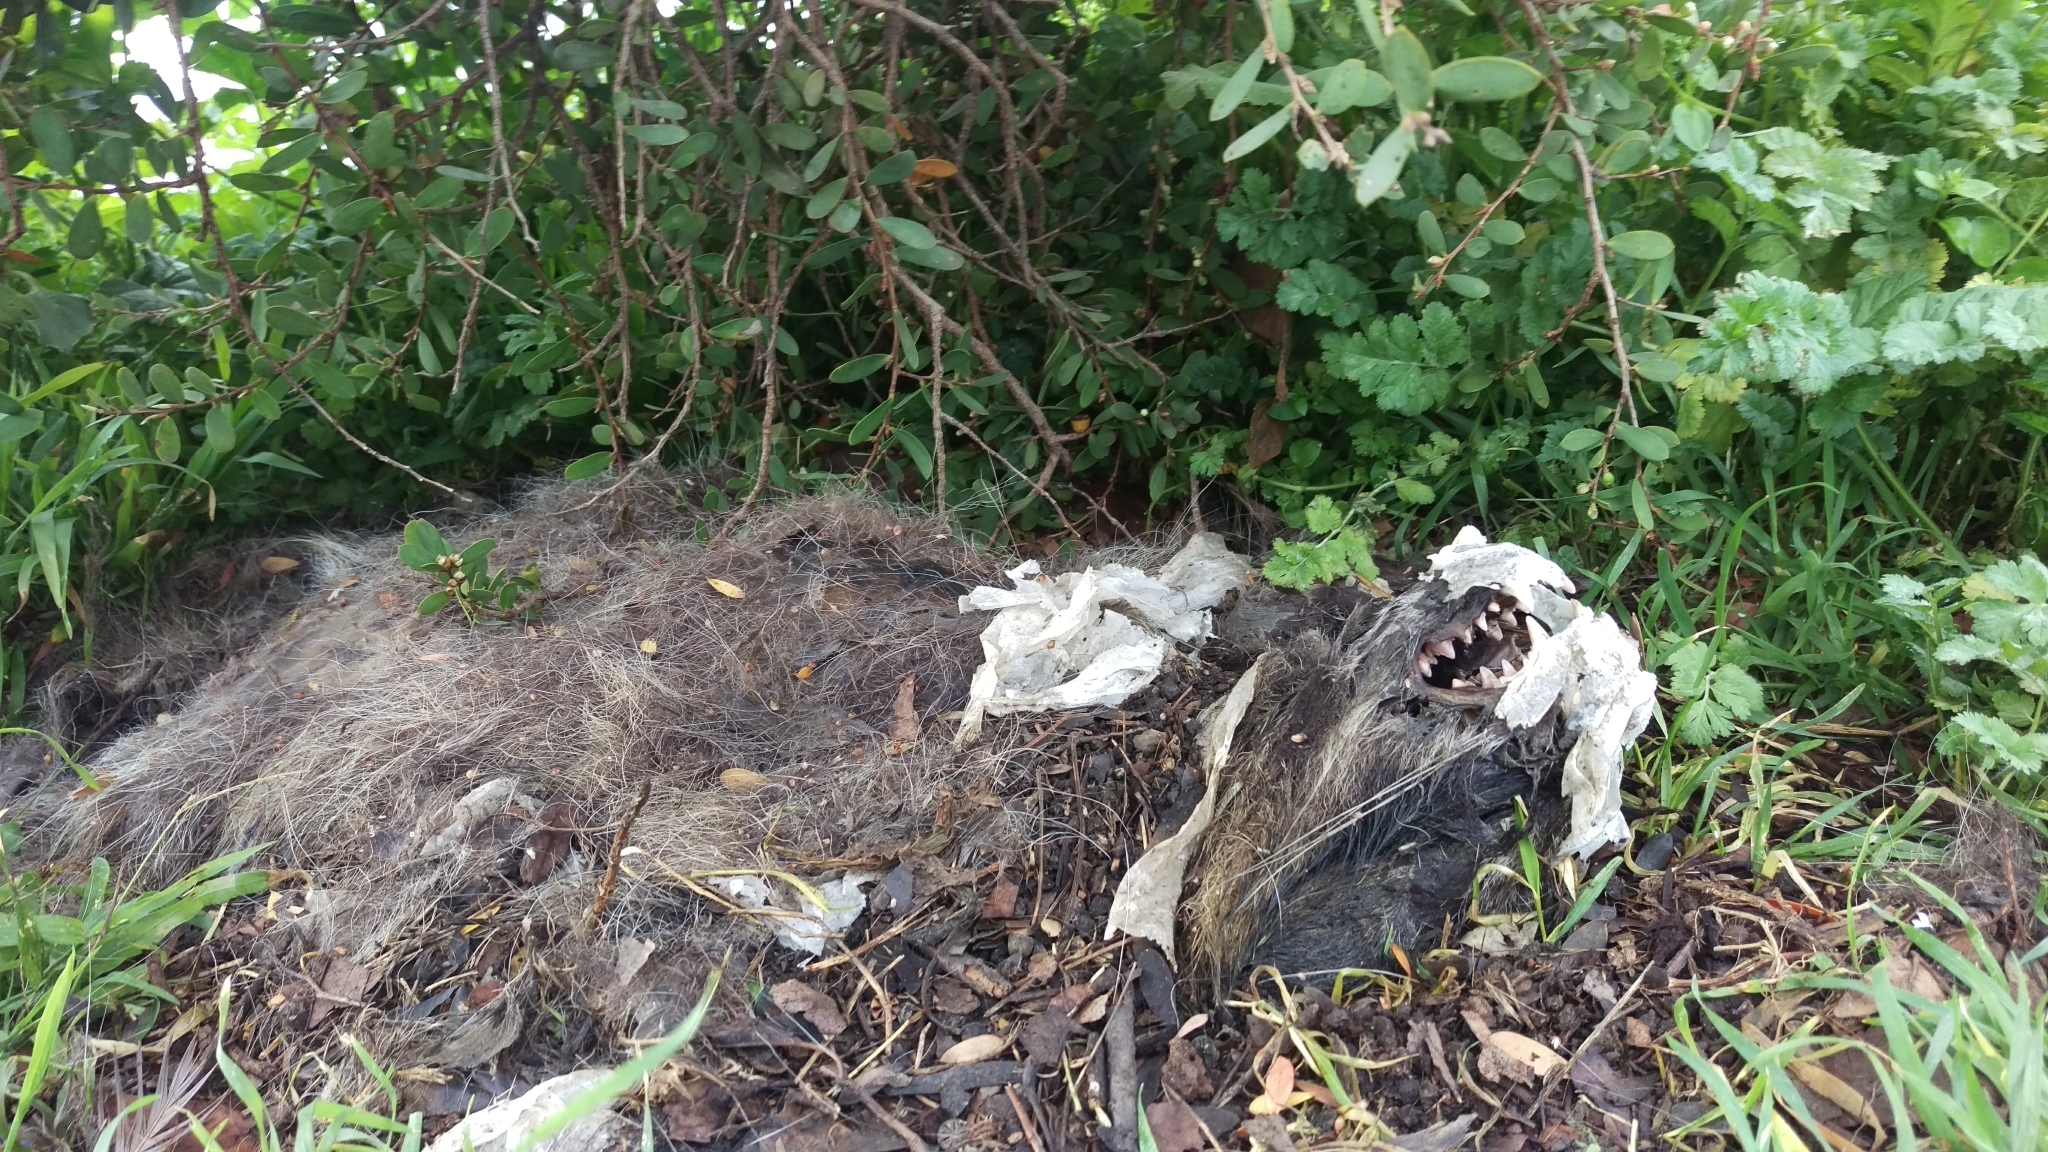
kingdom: Animalia
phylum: Chordata
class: Mammalia
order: Carnivora
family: Procyonidae
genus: Procyon
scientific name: Procyon lotor
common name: Raccoon
